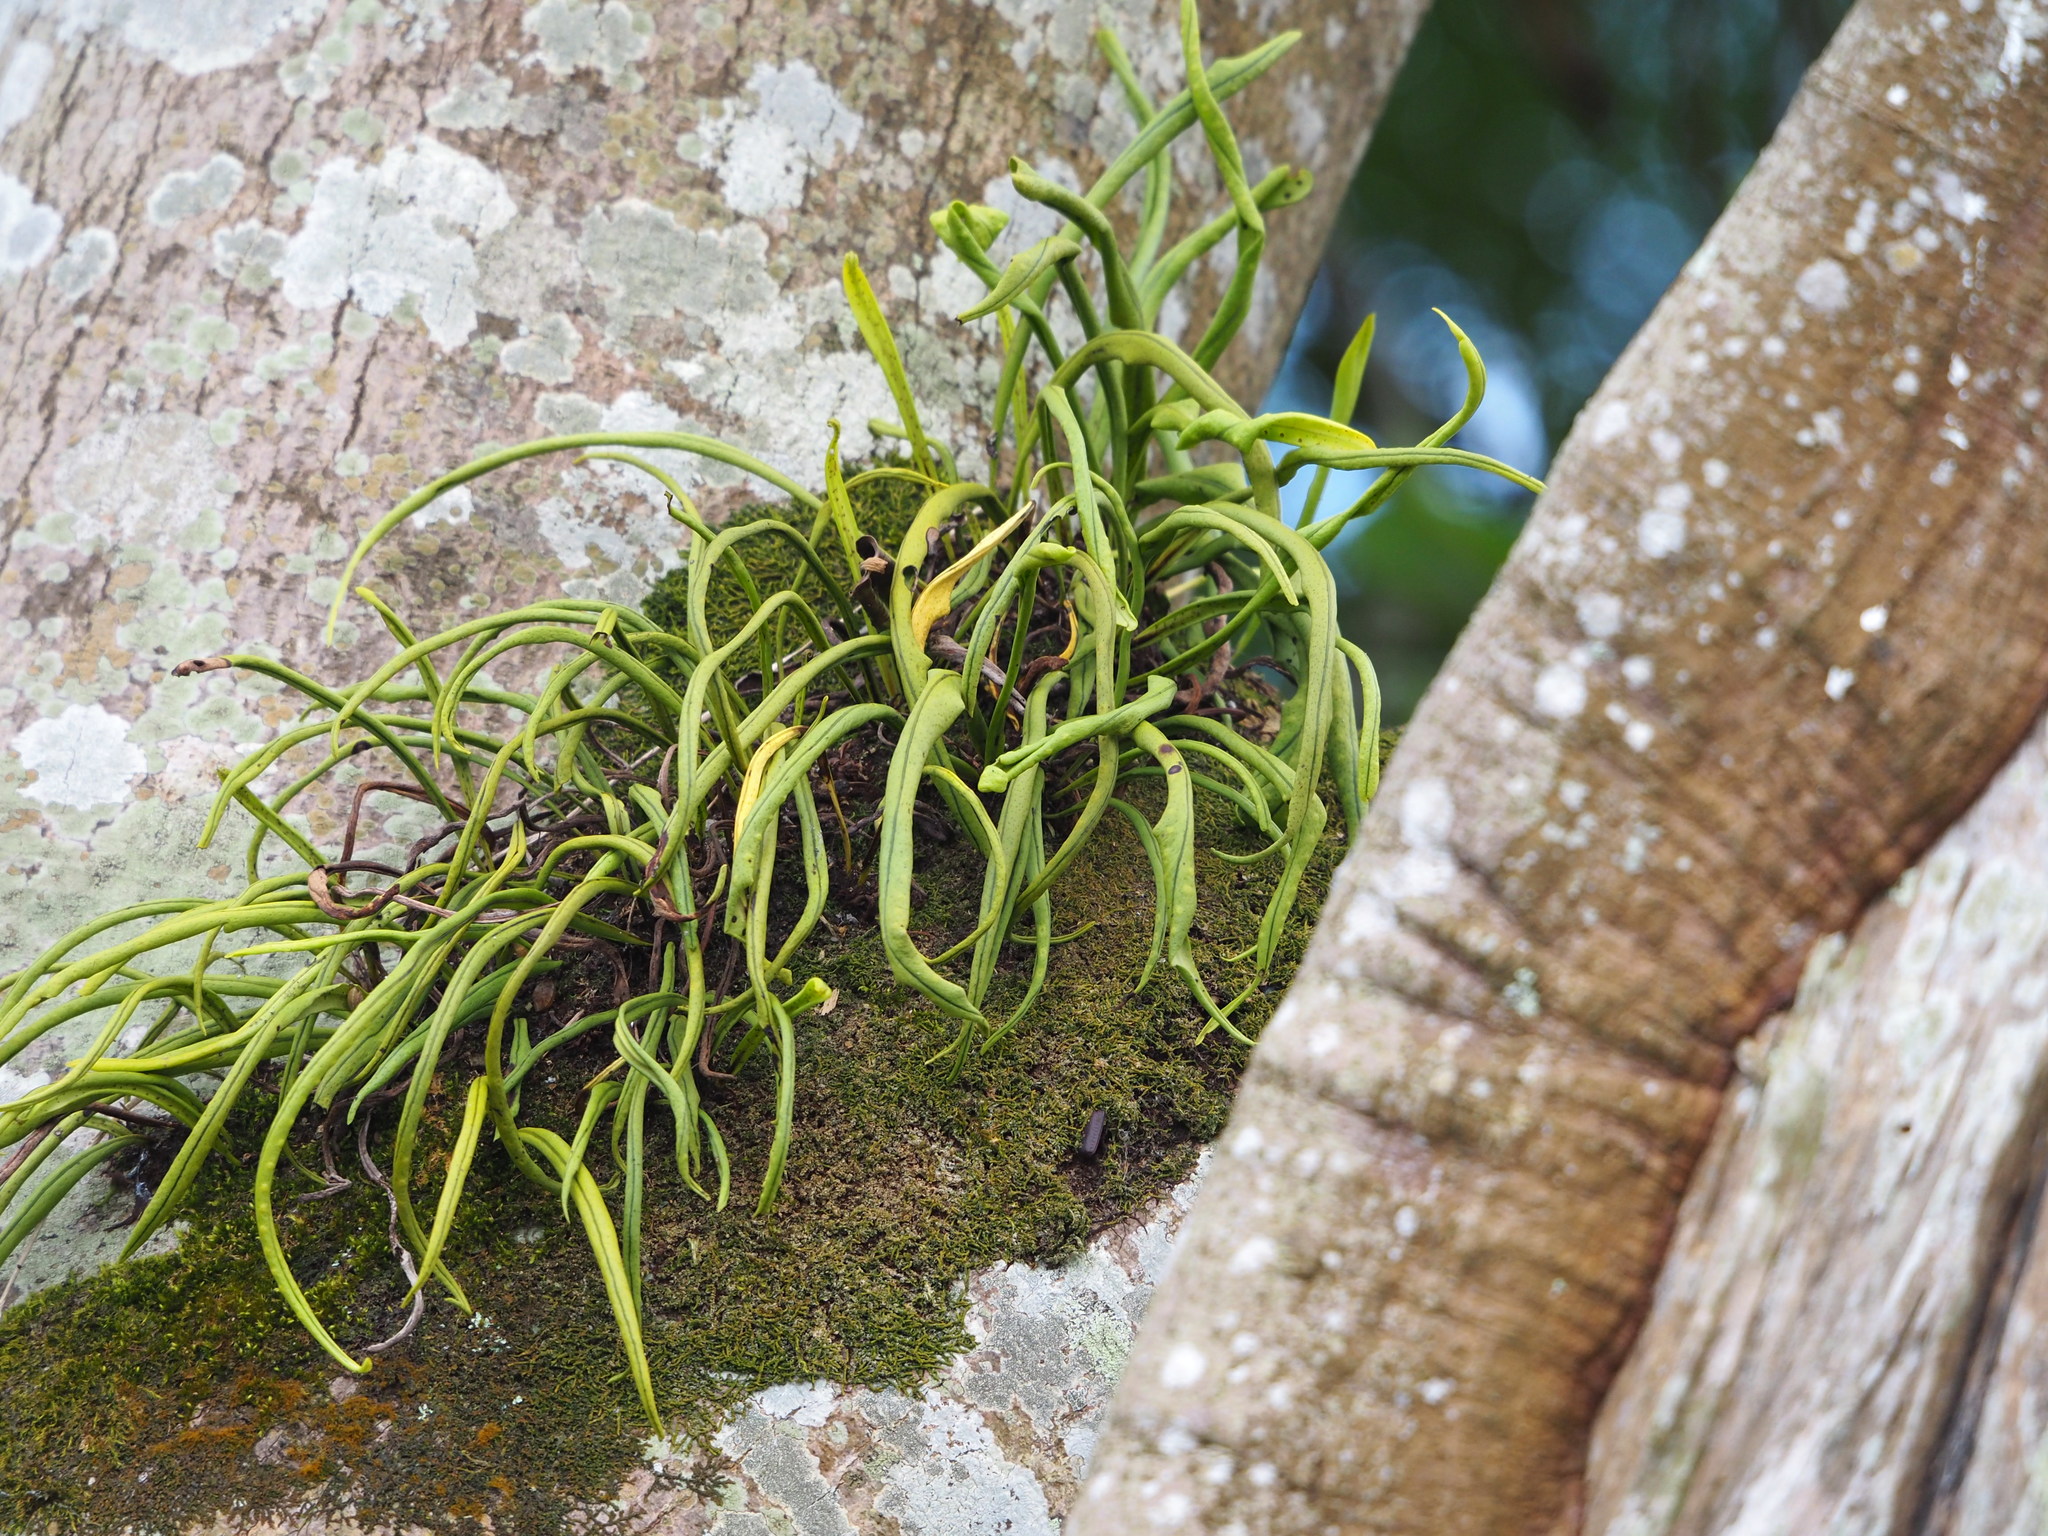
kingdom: Plantae
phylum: Tracheophyta
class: Polypodiopsida
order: Polypodiales
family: Polypodiaceae
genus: Lepisorus
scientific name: Lepisorus thunbergianus
